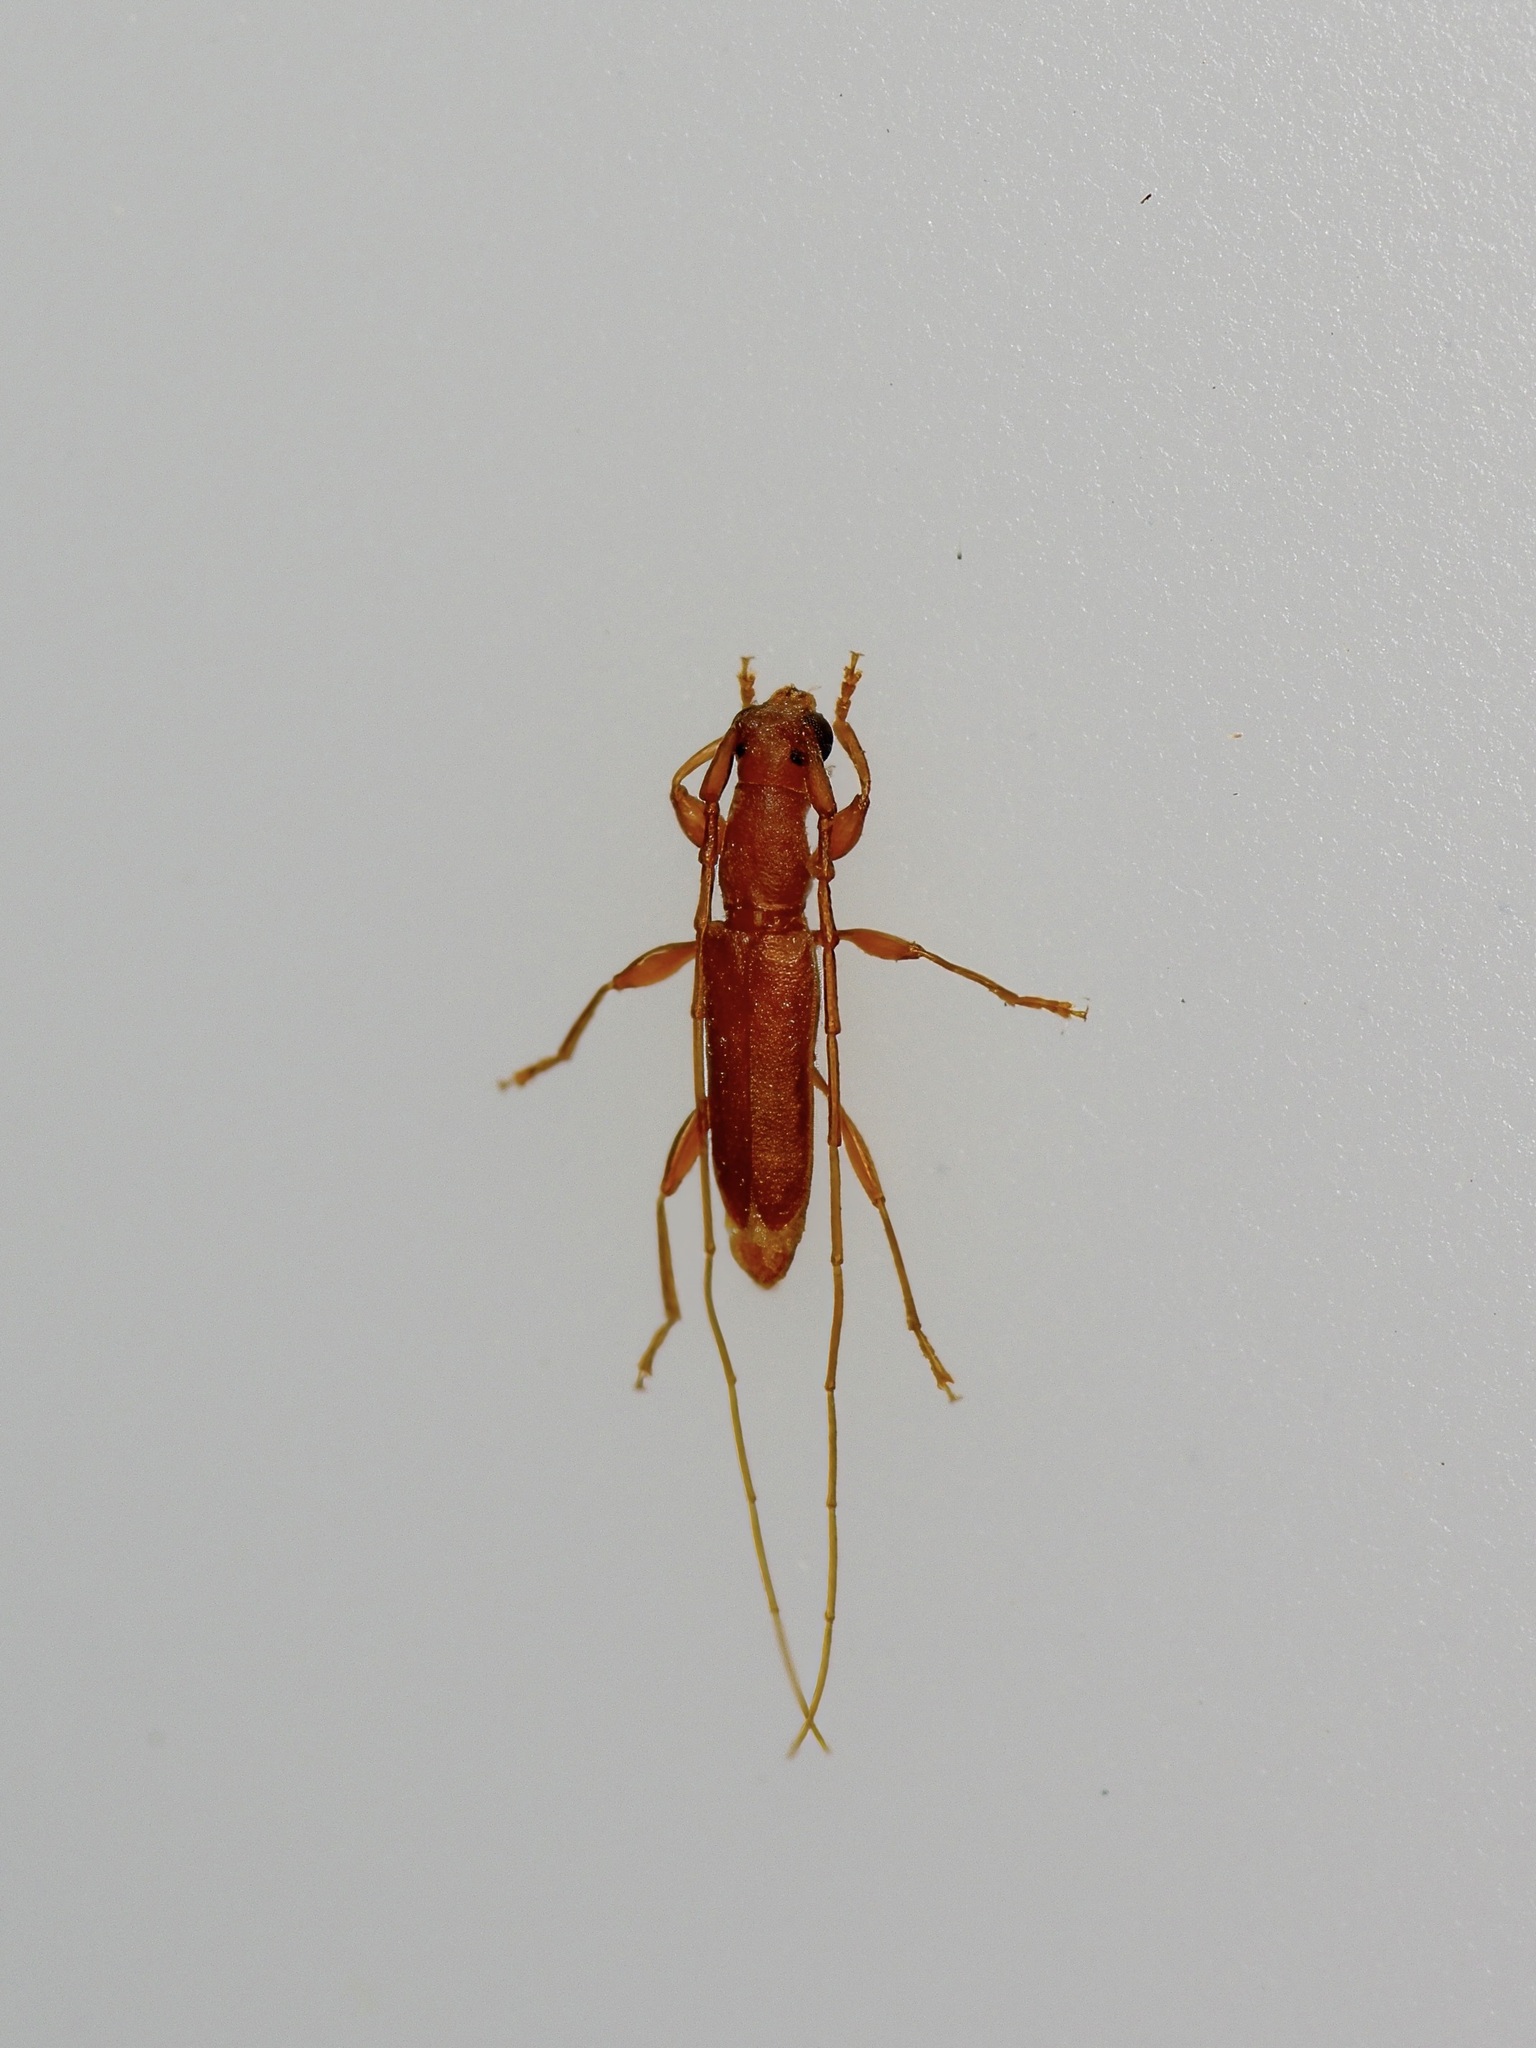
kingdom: Animalia
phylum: Arthropoda
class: Insecta
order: Coleoptera
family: Cerambycidae
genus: Hypexilis
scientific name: Hypexilis pallida
